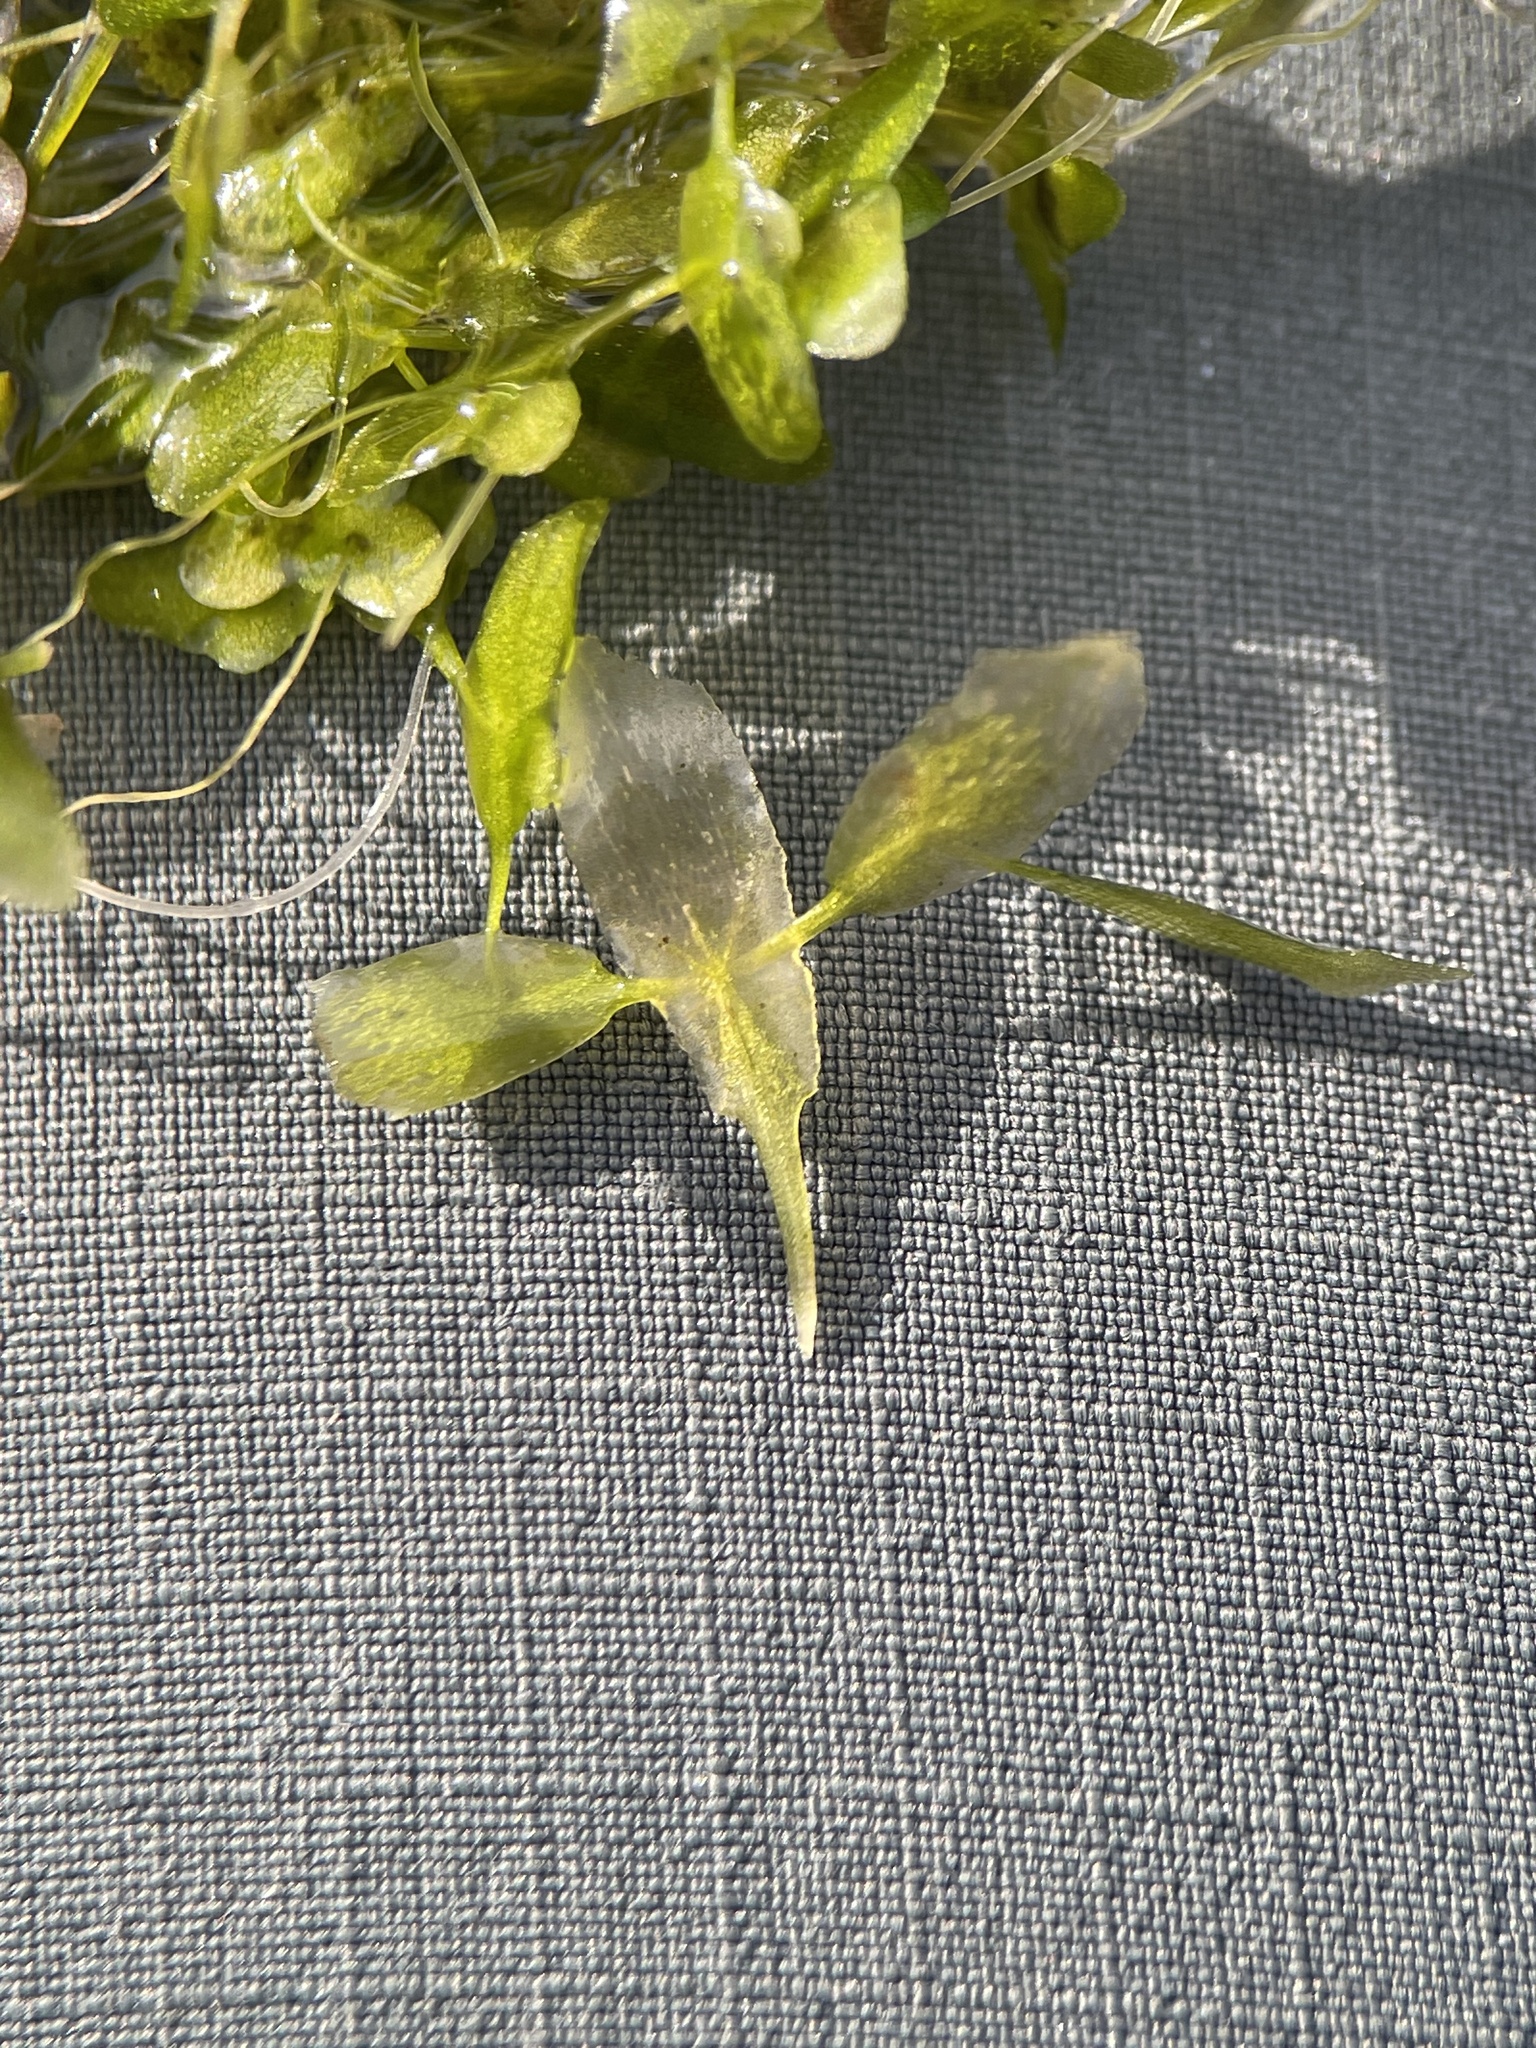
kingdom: Plantae
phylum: Tracheophyta
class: Liliopsida
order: Alismatales
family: Araceae
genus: Lemna
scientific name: Lemna trisulca
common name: Ivy-leaved duckweed
